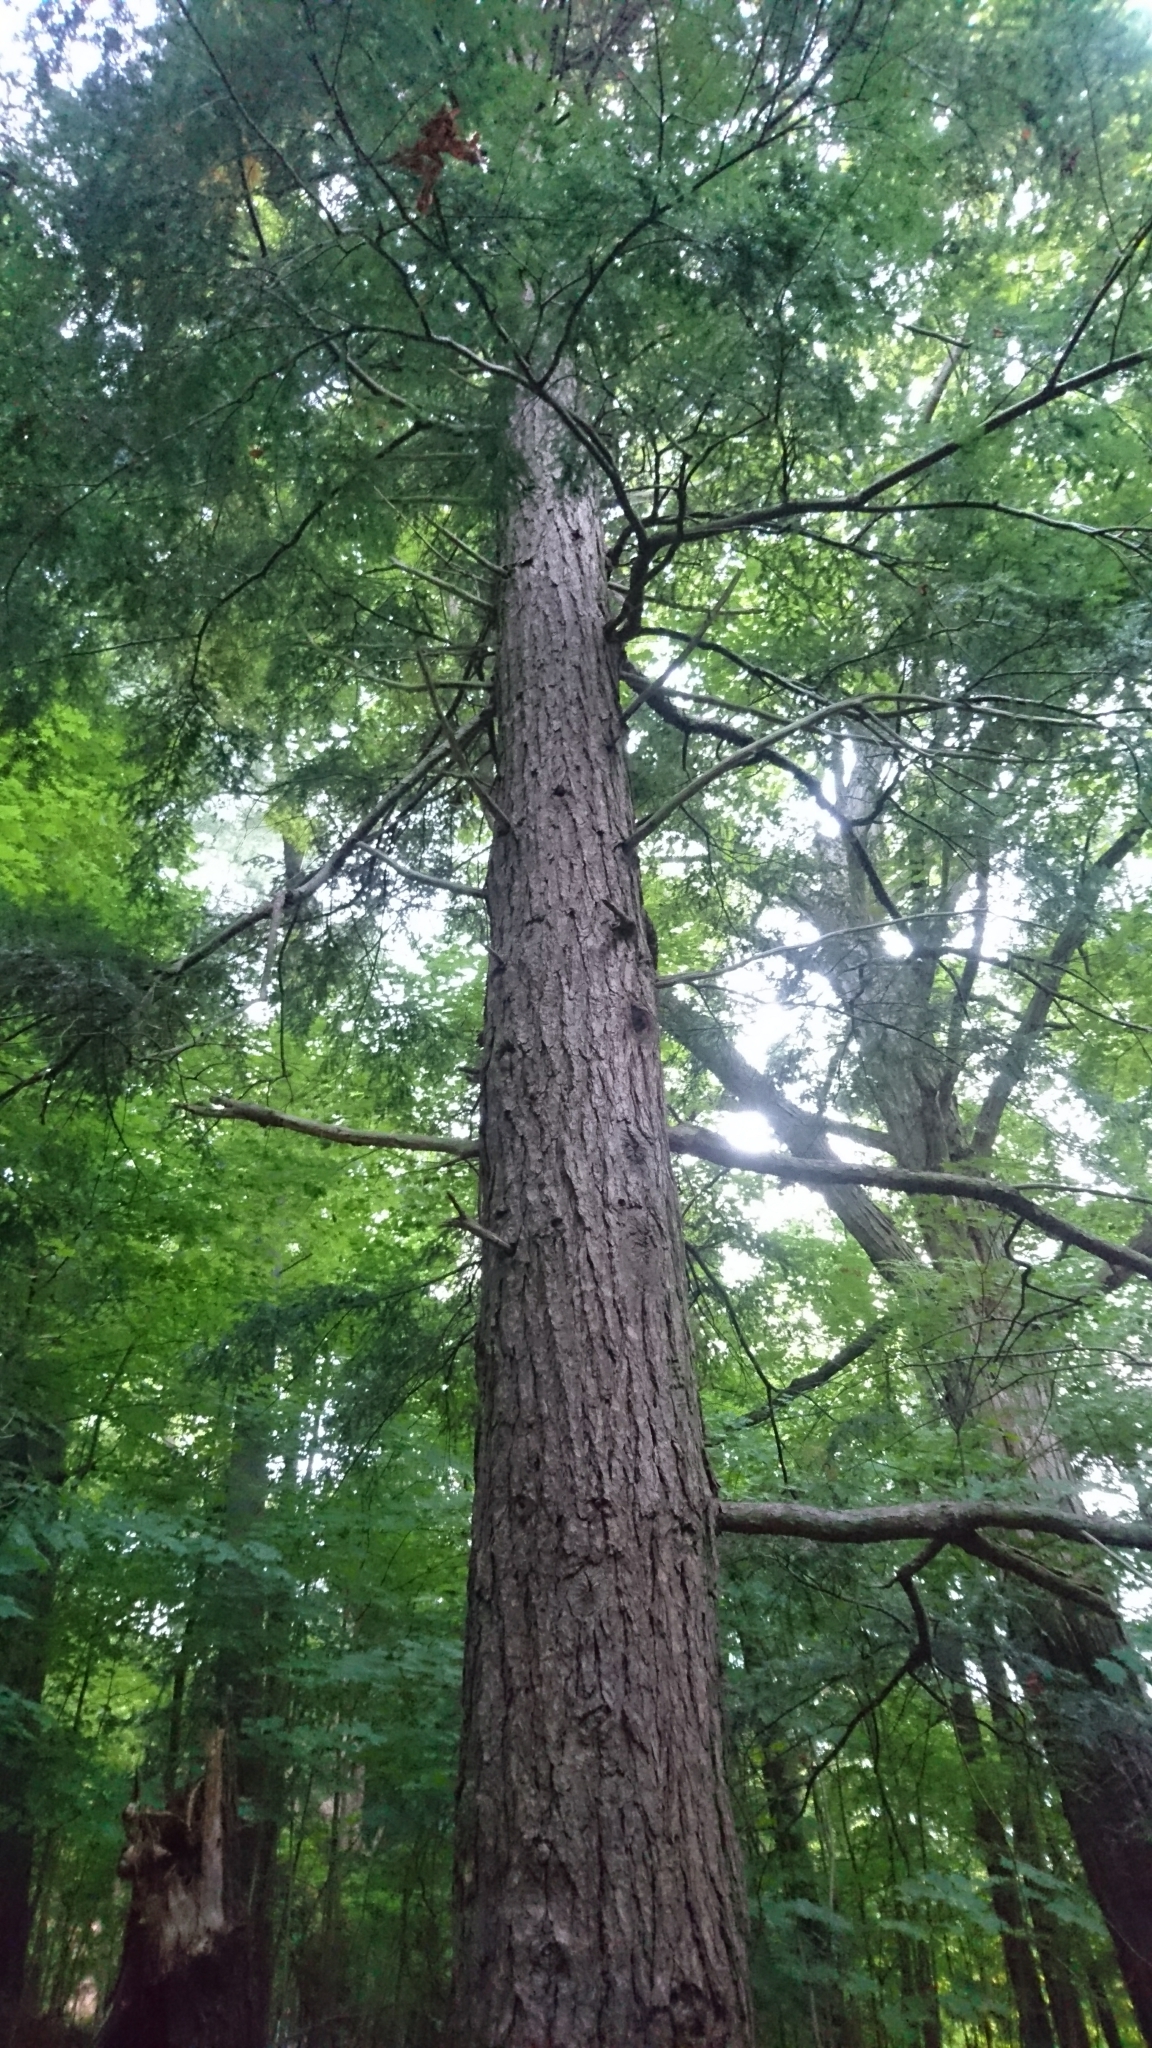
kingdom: Plantae
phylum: Tracheophyta
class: Pinopsida
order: Pinales
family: Pinaceae
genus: Tsuga
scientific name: Tsuga canadensis
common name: Eastern hemlock
